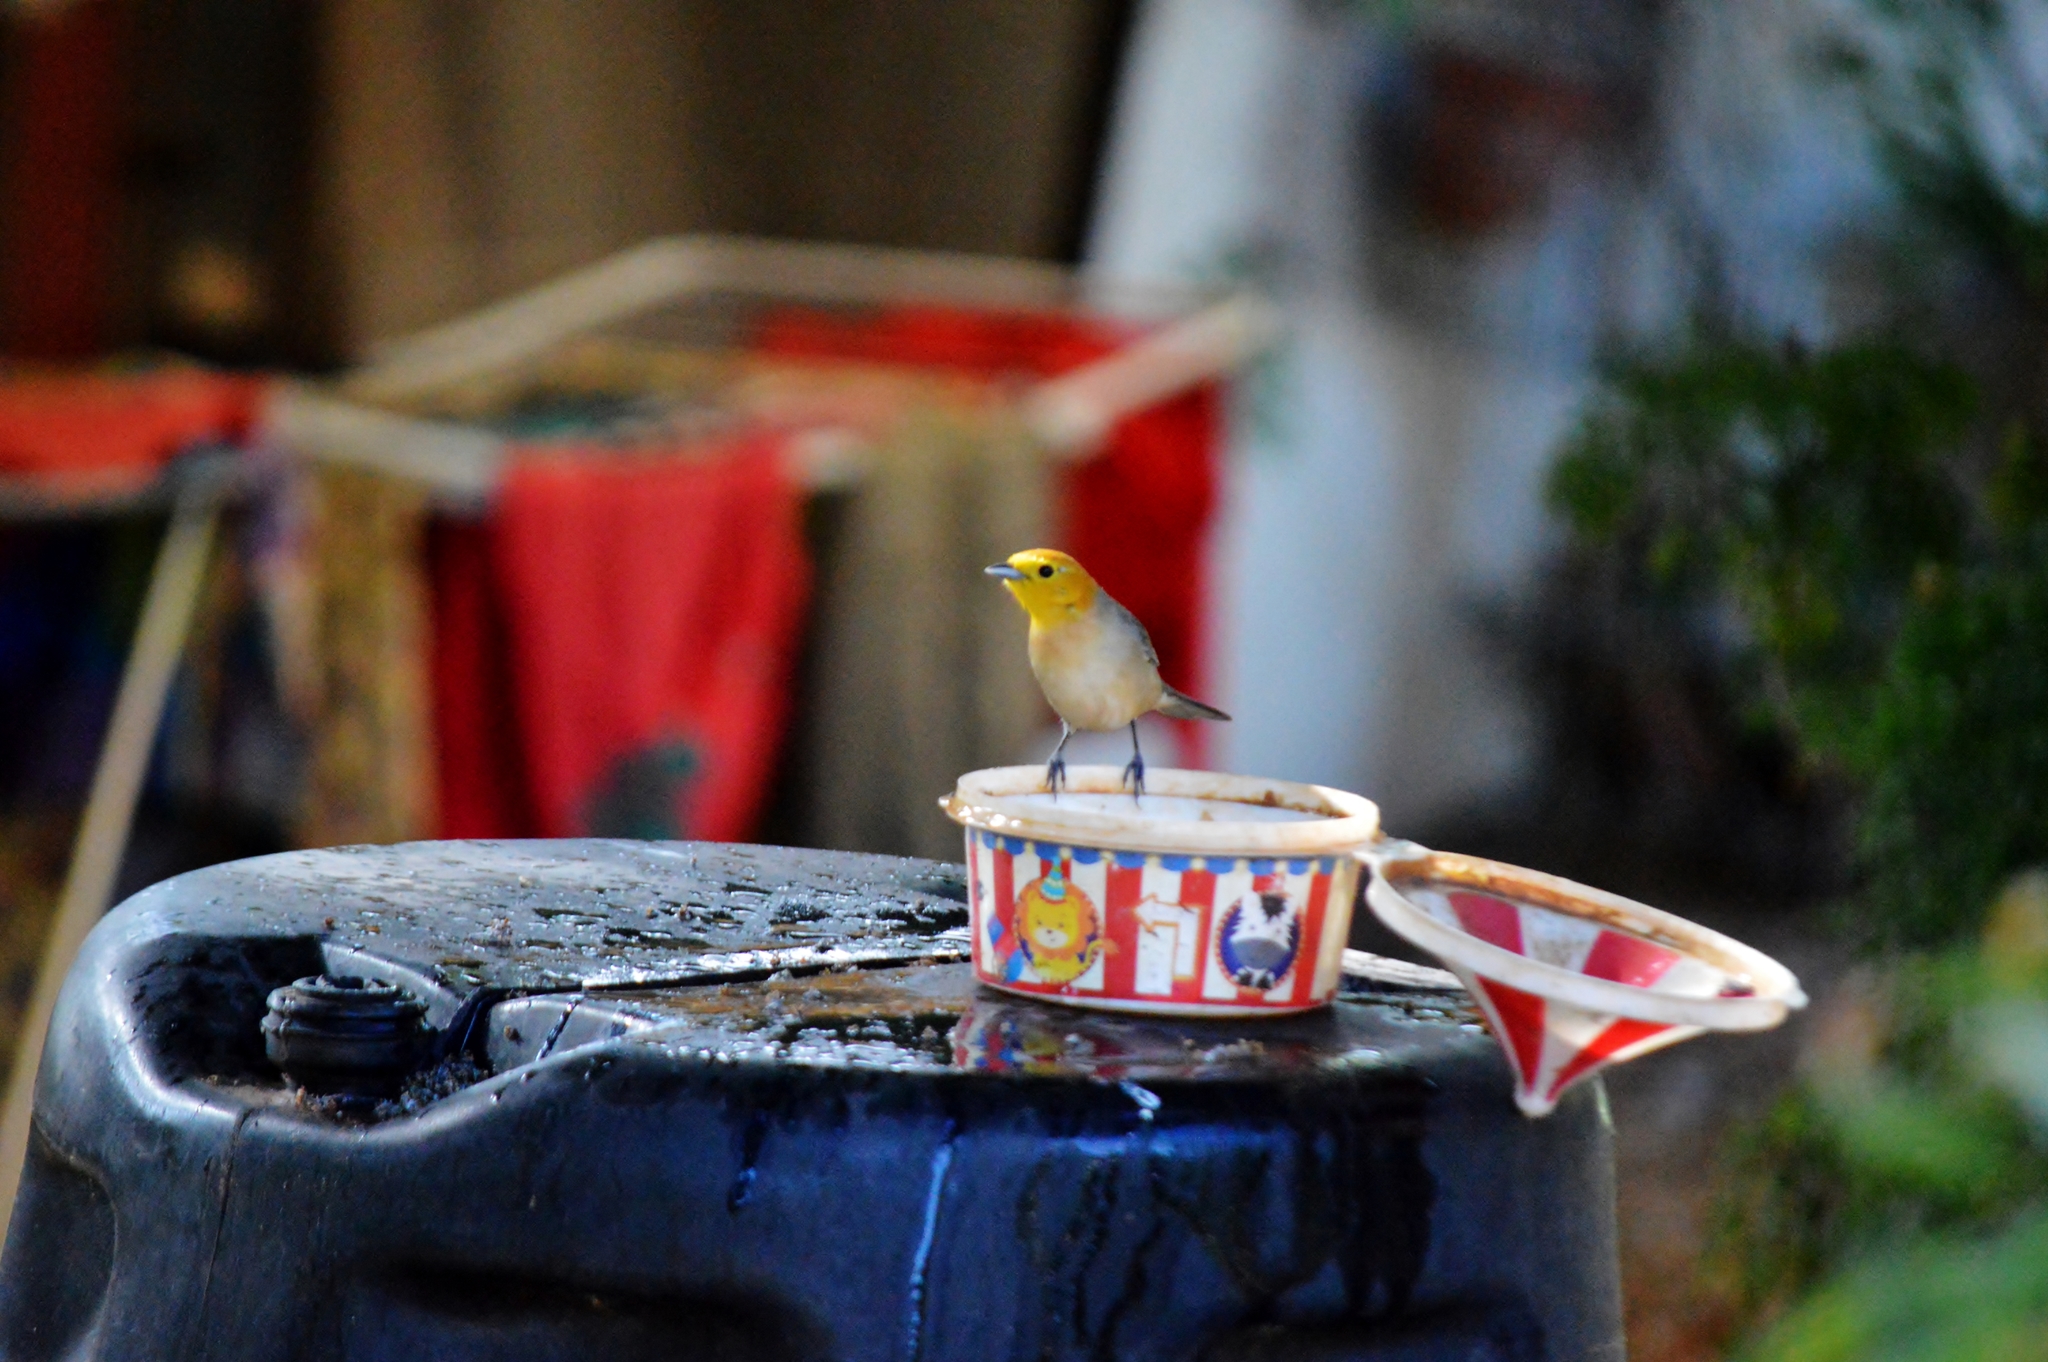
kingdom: Animalia
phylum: Chordata
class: Aves
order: Passeriformes
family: Thraupidae
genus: Thlypopsis
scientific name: Thlypopsis sordida
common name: Orange-headed tanager
